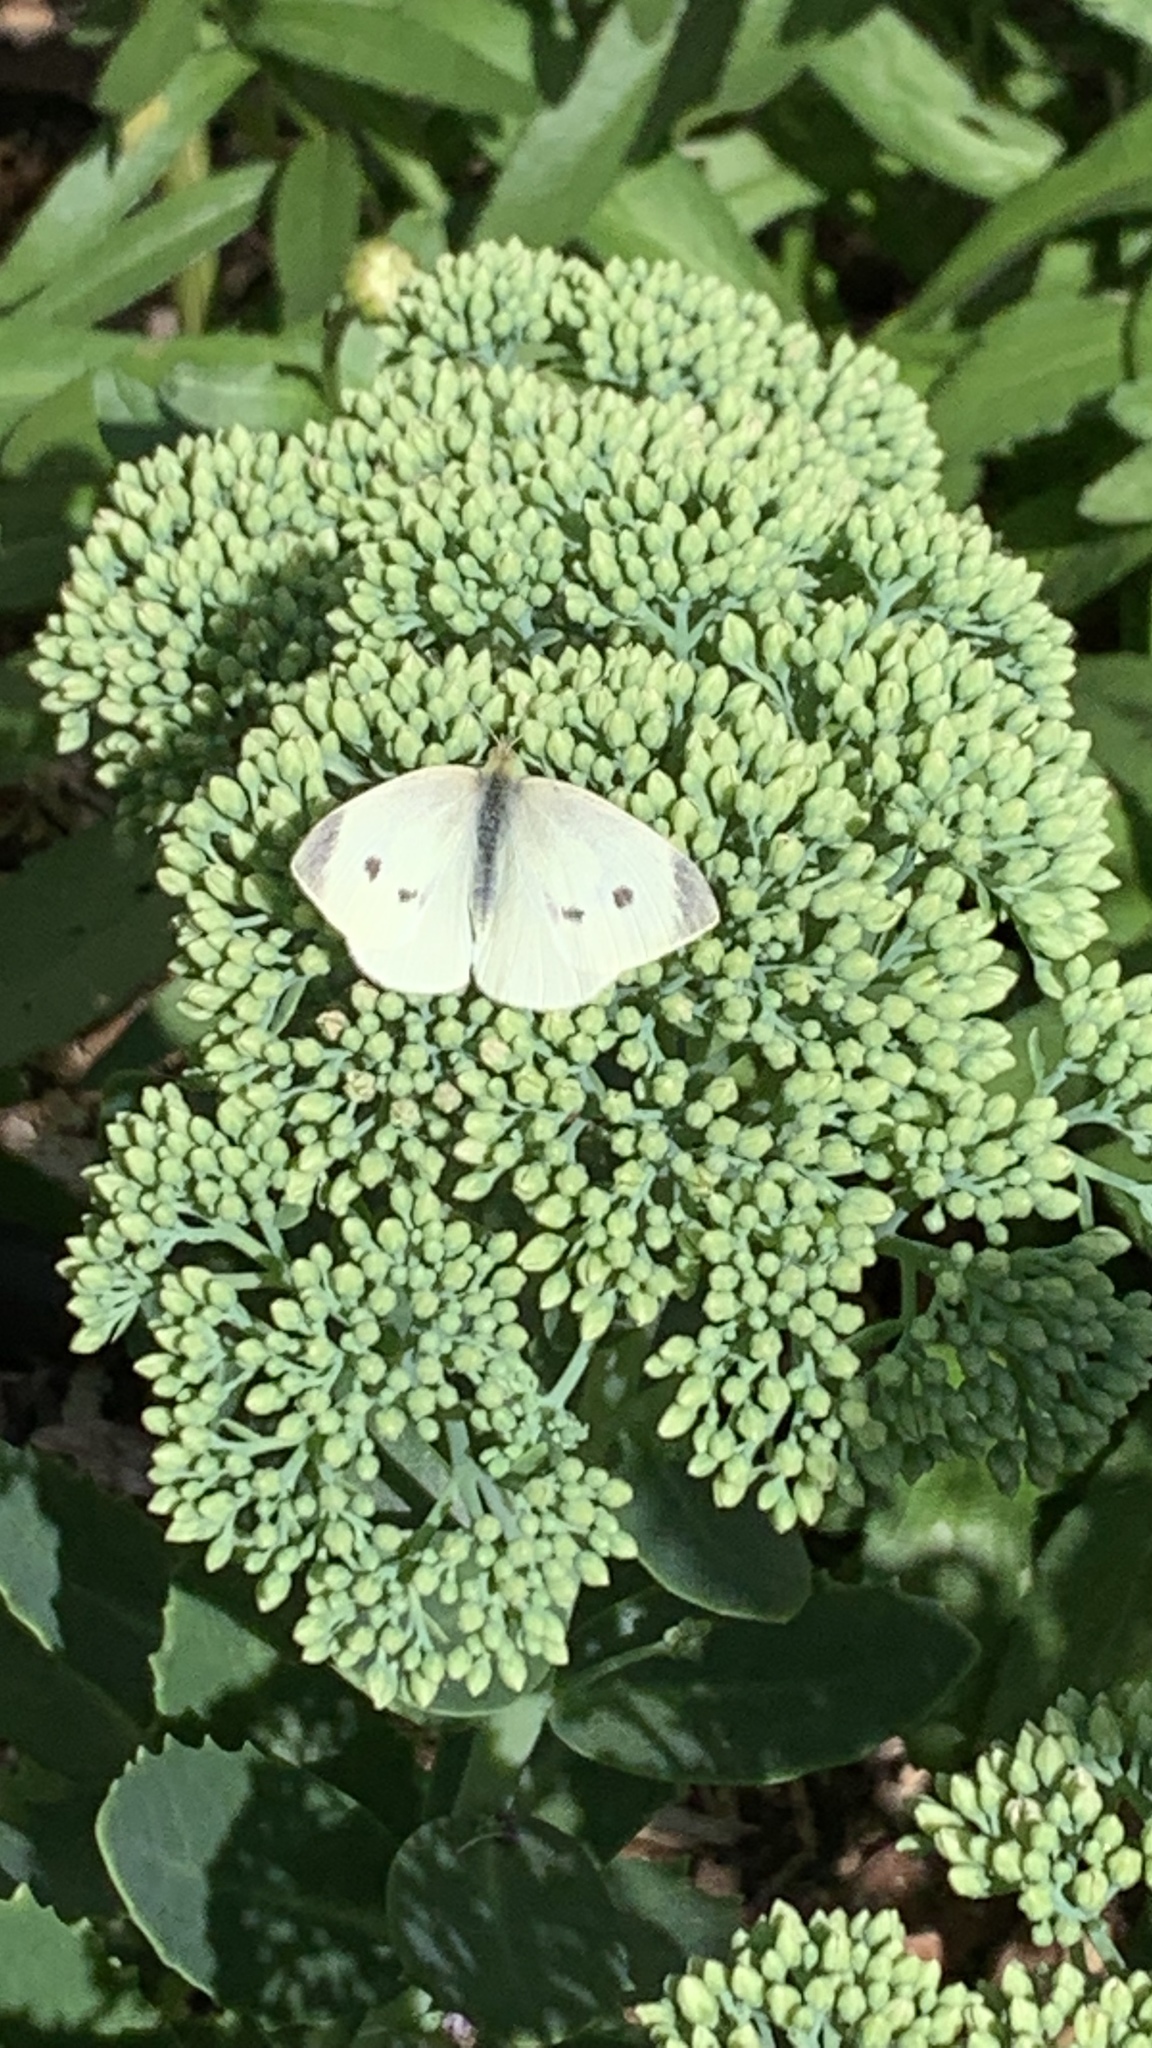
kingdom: Animalia
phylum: Arthropoda
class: Insecta
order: Lepidoptera
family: Pieridae
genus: Pieris
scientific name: Pieris rapae
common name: Small white
